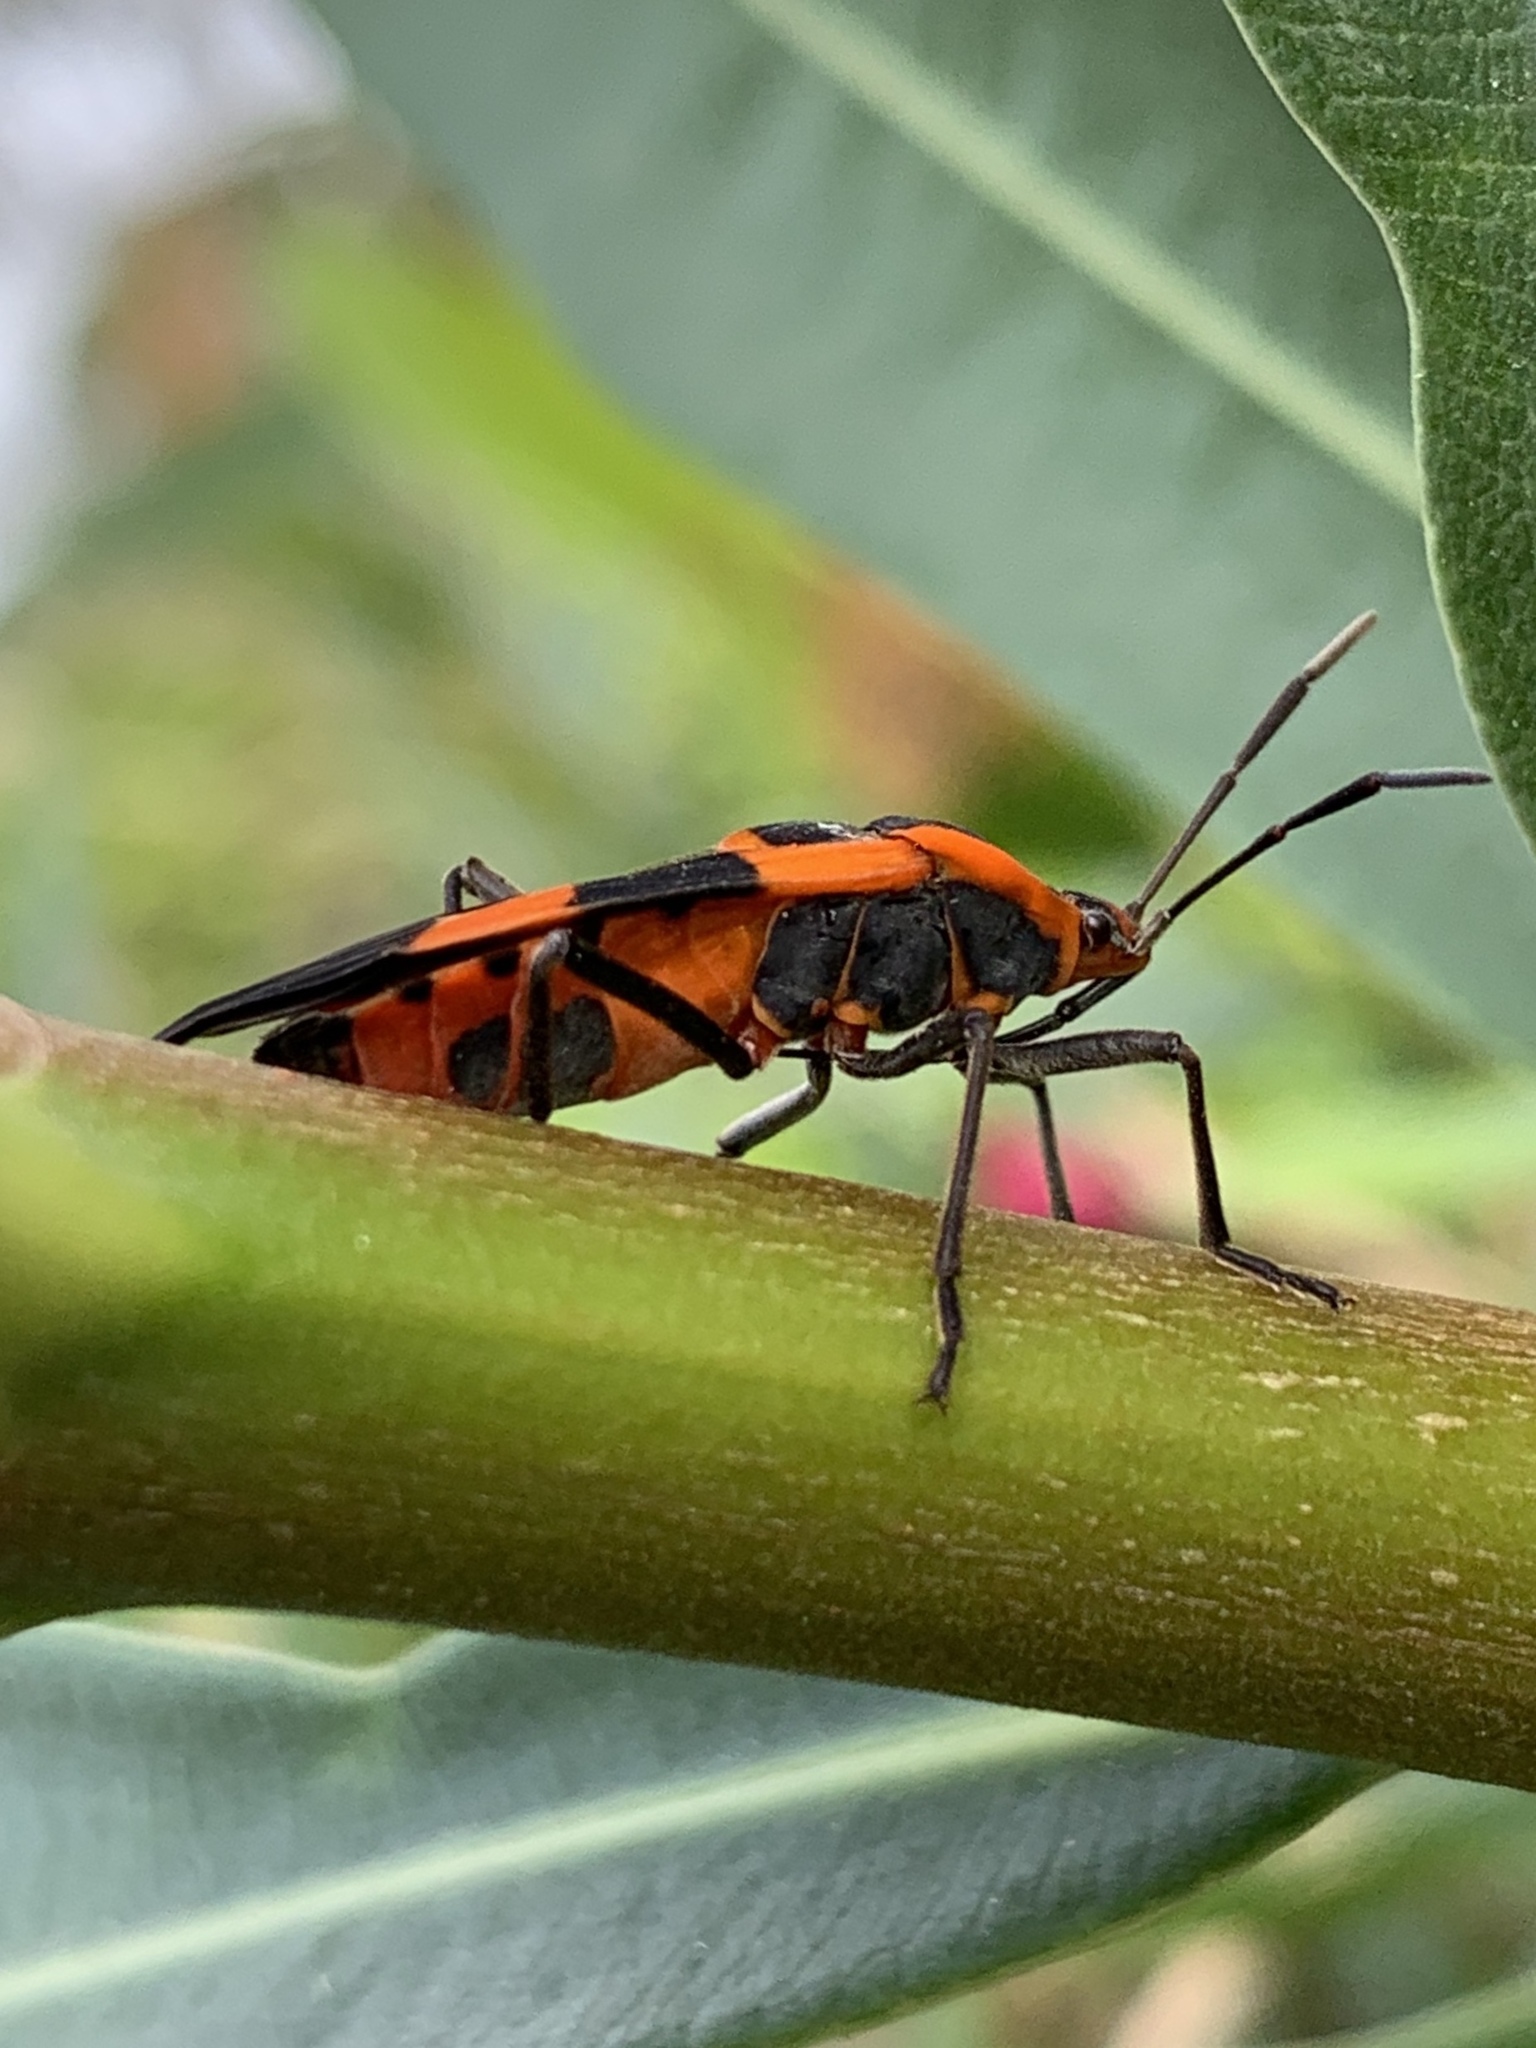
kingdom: Animalia
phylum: Arthropoda
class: Insecta
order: Hemiptera
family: Lygaeidae
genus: Oncopeltus
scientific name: Oncopeltus fasciatus
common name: Large milkweed bug
